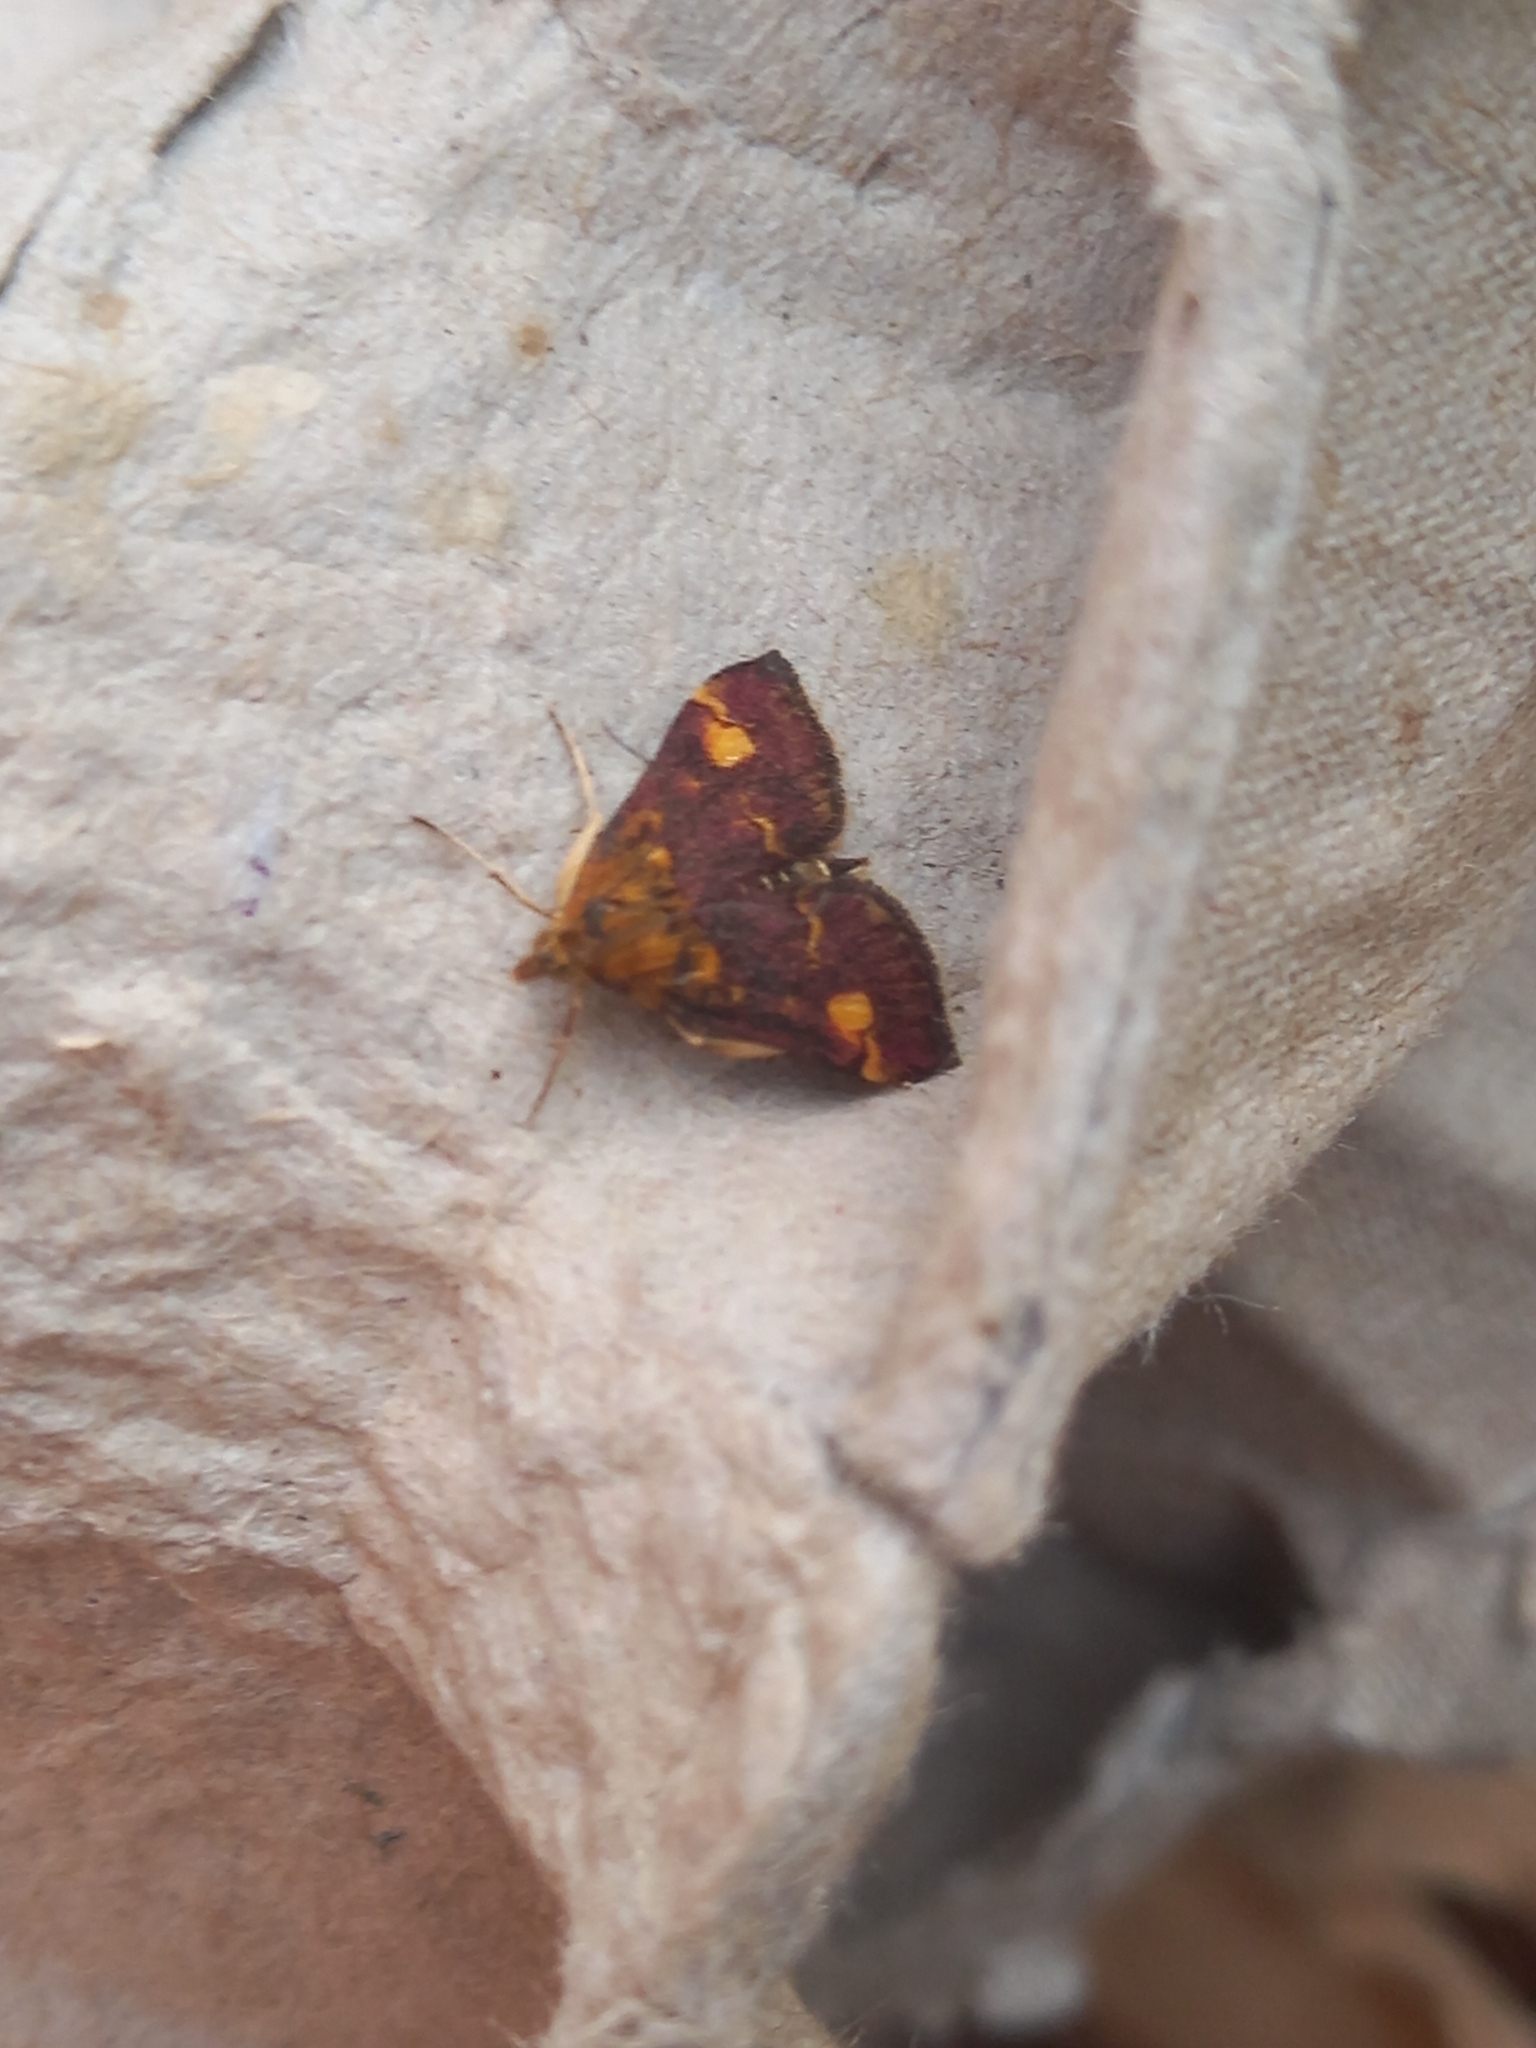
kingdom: Animalia
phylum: Arthropoda
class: Insecta
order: Lepidoptera
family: Crambidae
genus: Pyrausta
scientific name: Pyrausta aurata
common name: Small purple & gold
